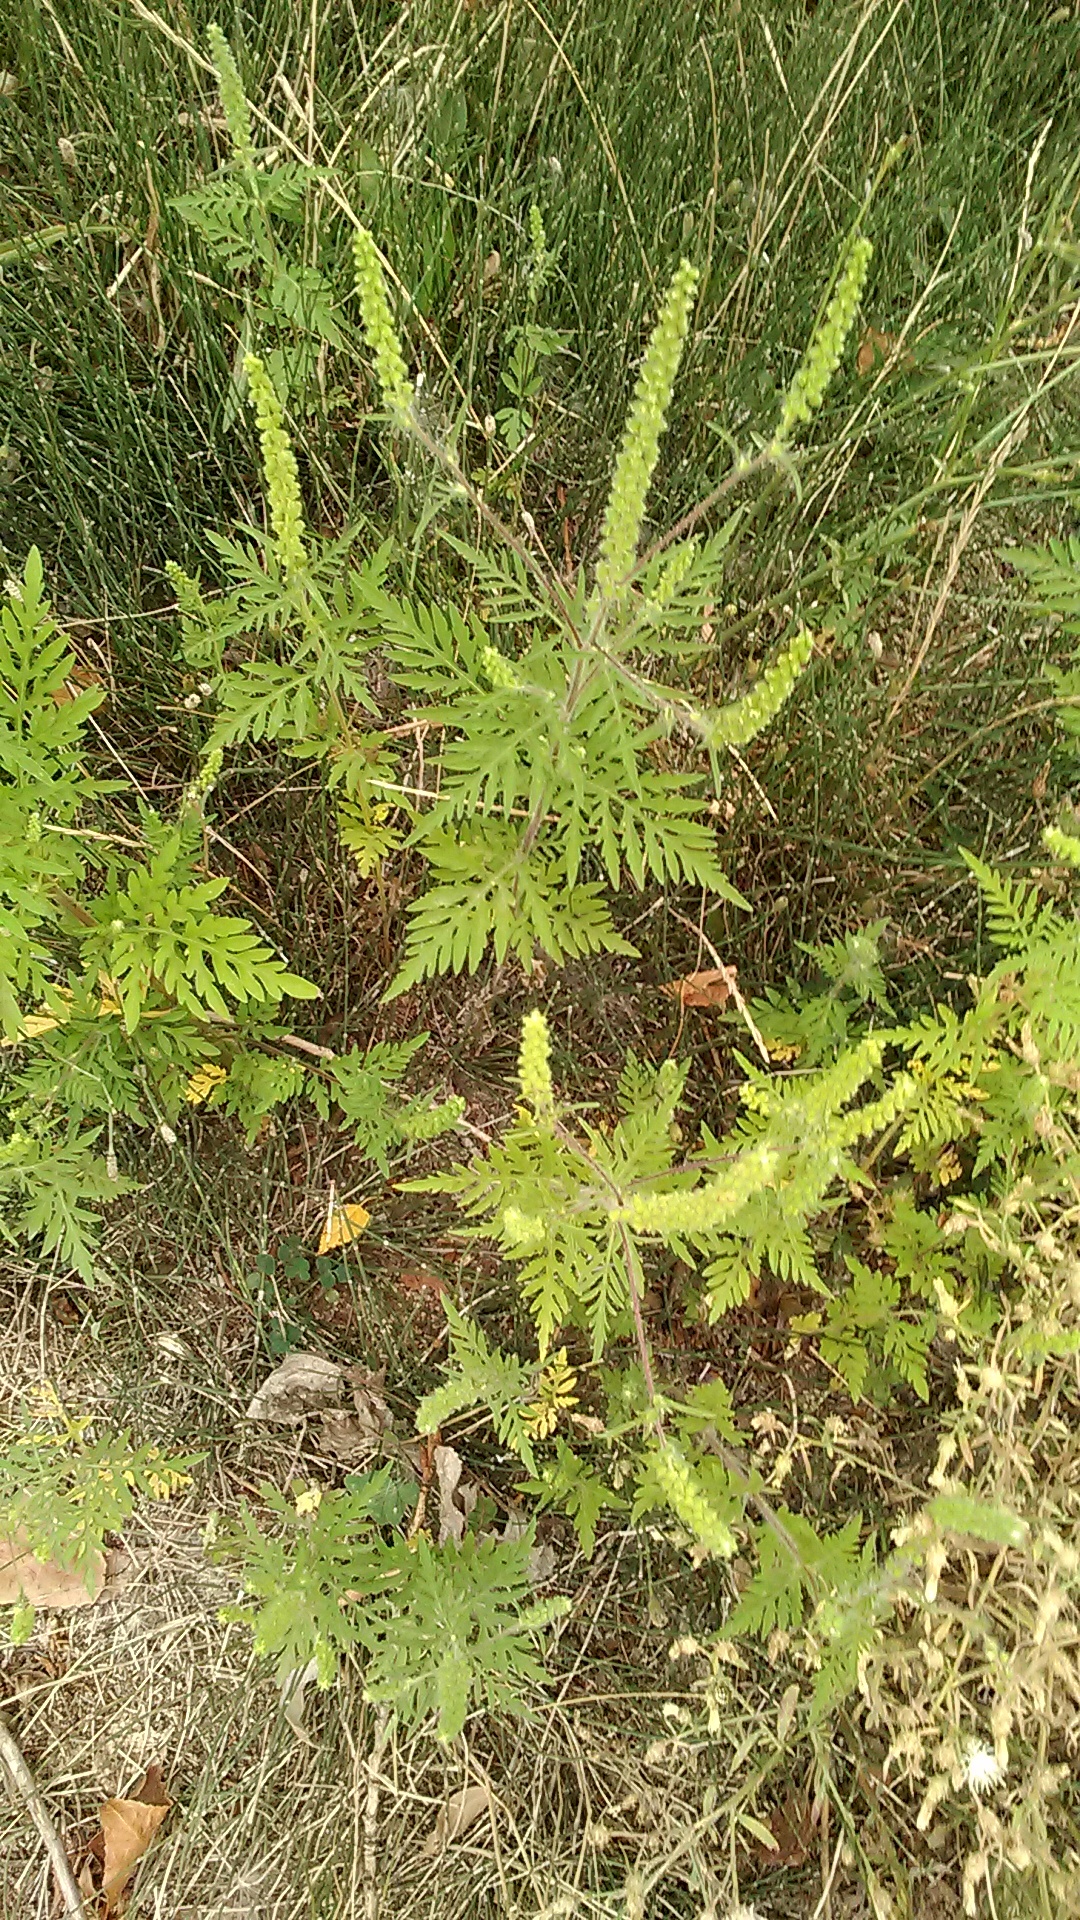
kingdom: Plantae
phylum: Tracheophyta
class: Magnoliopsida
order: Asterales
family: Asteraceae
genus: Ambrosia
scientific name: Ambrosia artemisiifolia
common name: Annual ragweed
